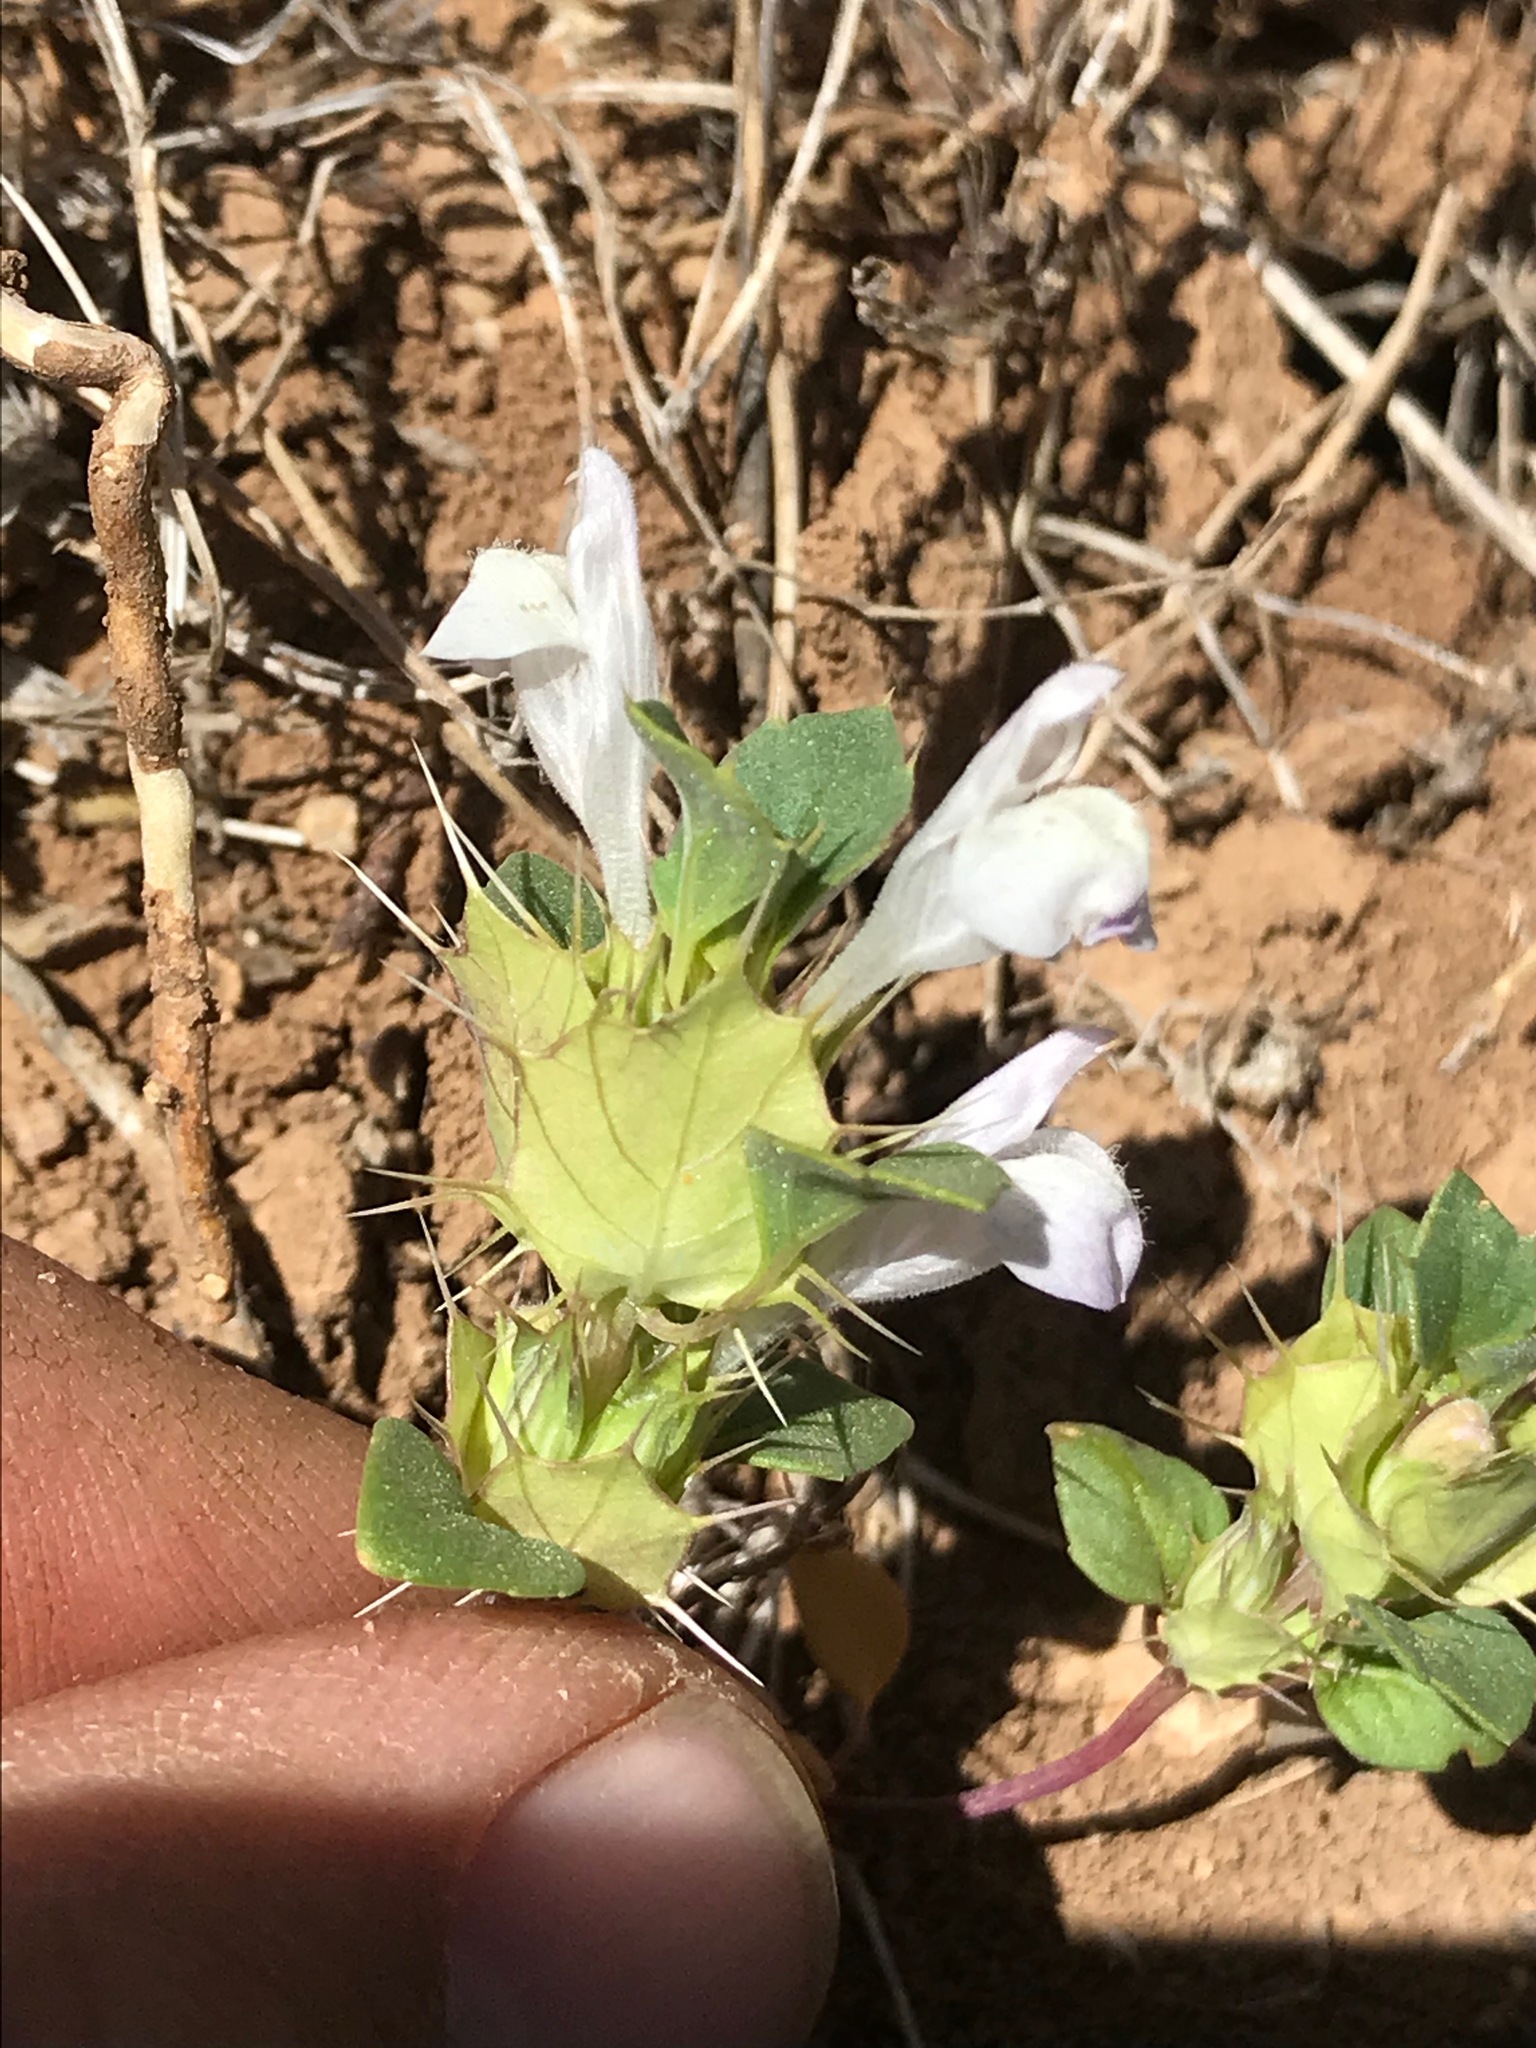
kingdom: Plantae
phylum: Tracheophyta
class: Magnoliopsida
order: Lamiales
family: Lamiaceae
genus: Acanthomintha
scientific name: Acanthomintha obovata
